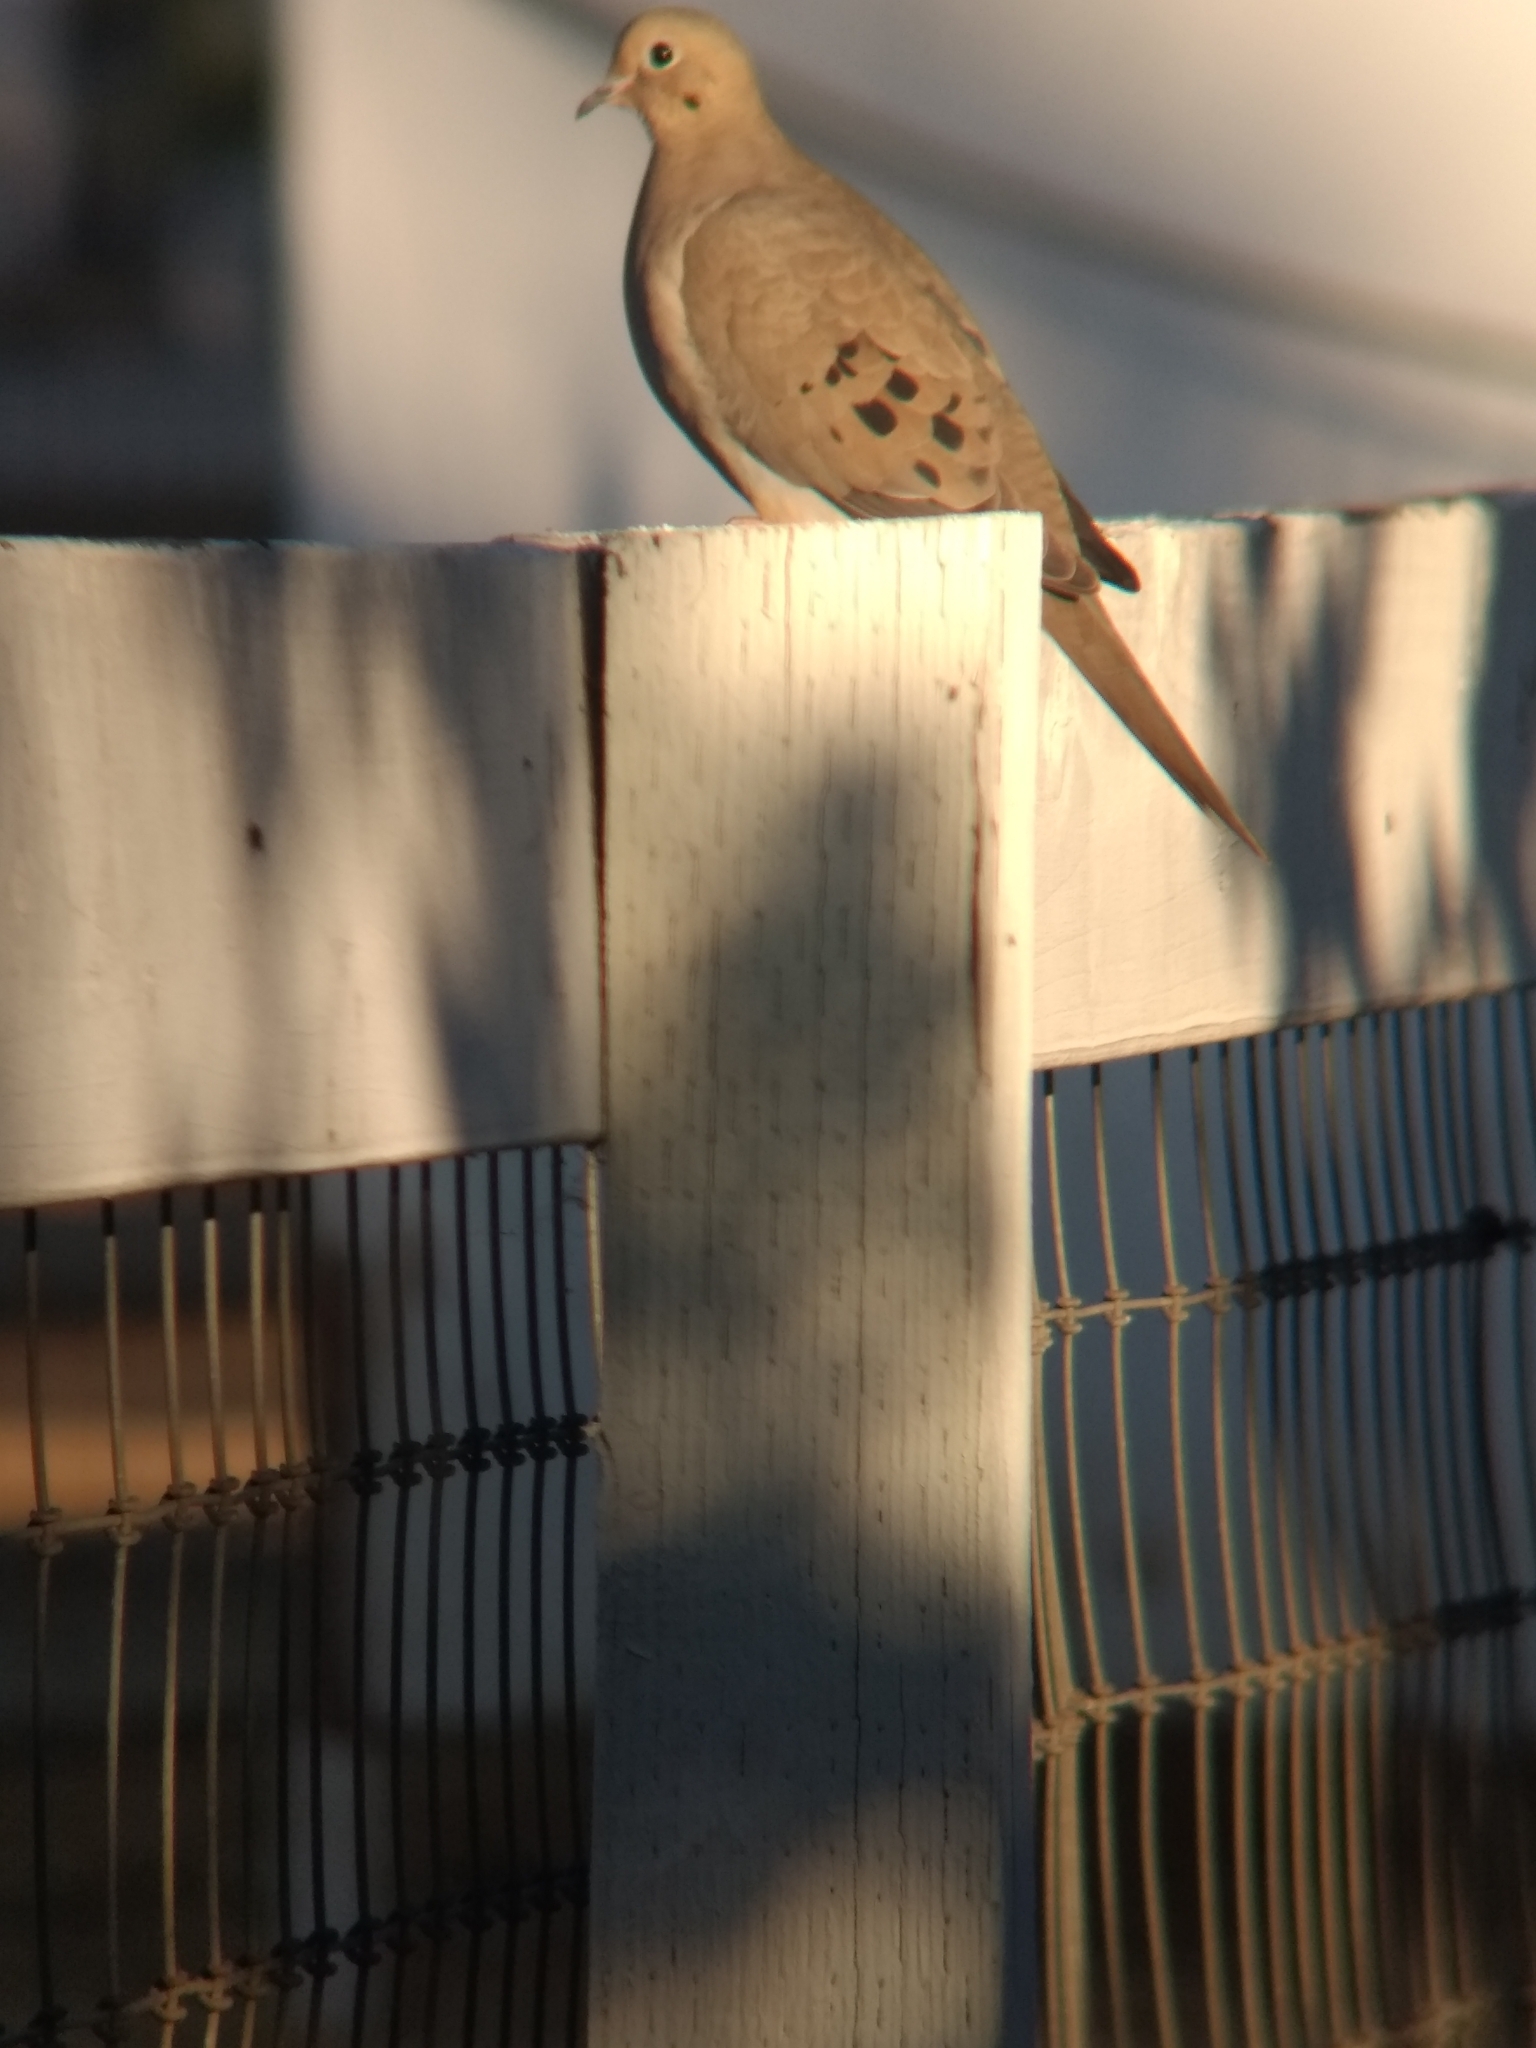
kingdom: Animalia
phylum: Chordata
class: Aves
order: Columbiformes
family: Columbidae
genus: Zenaida
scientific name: Zenaida macroura
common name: Mourning dove
